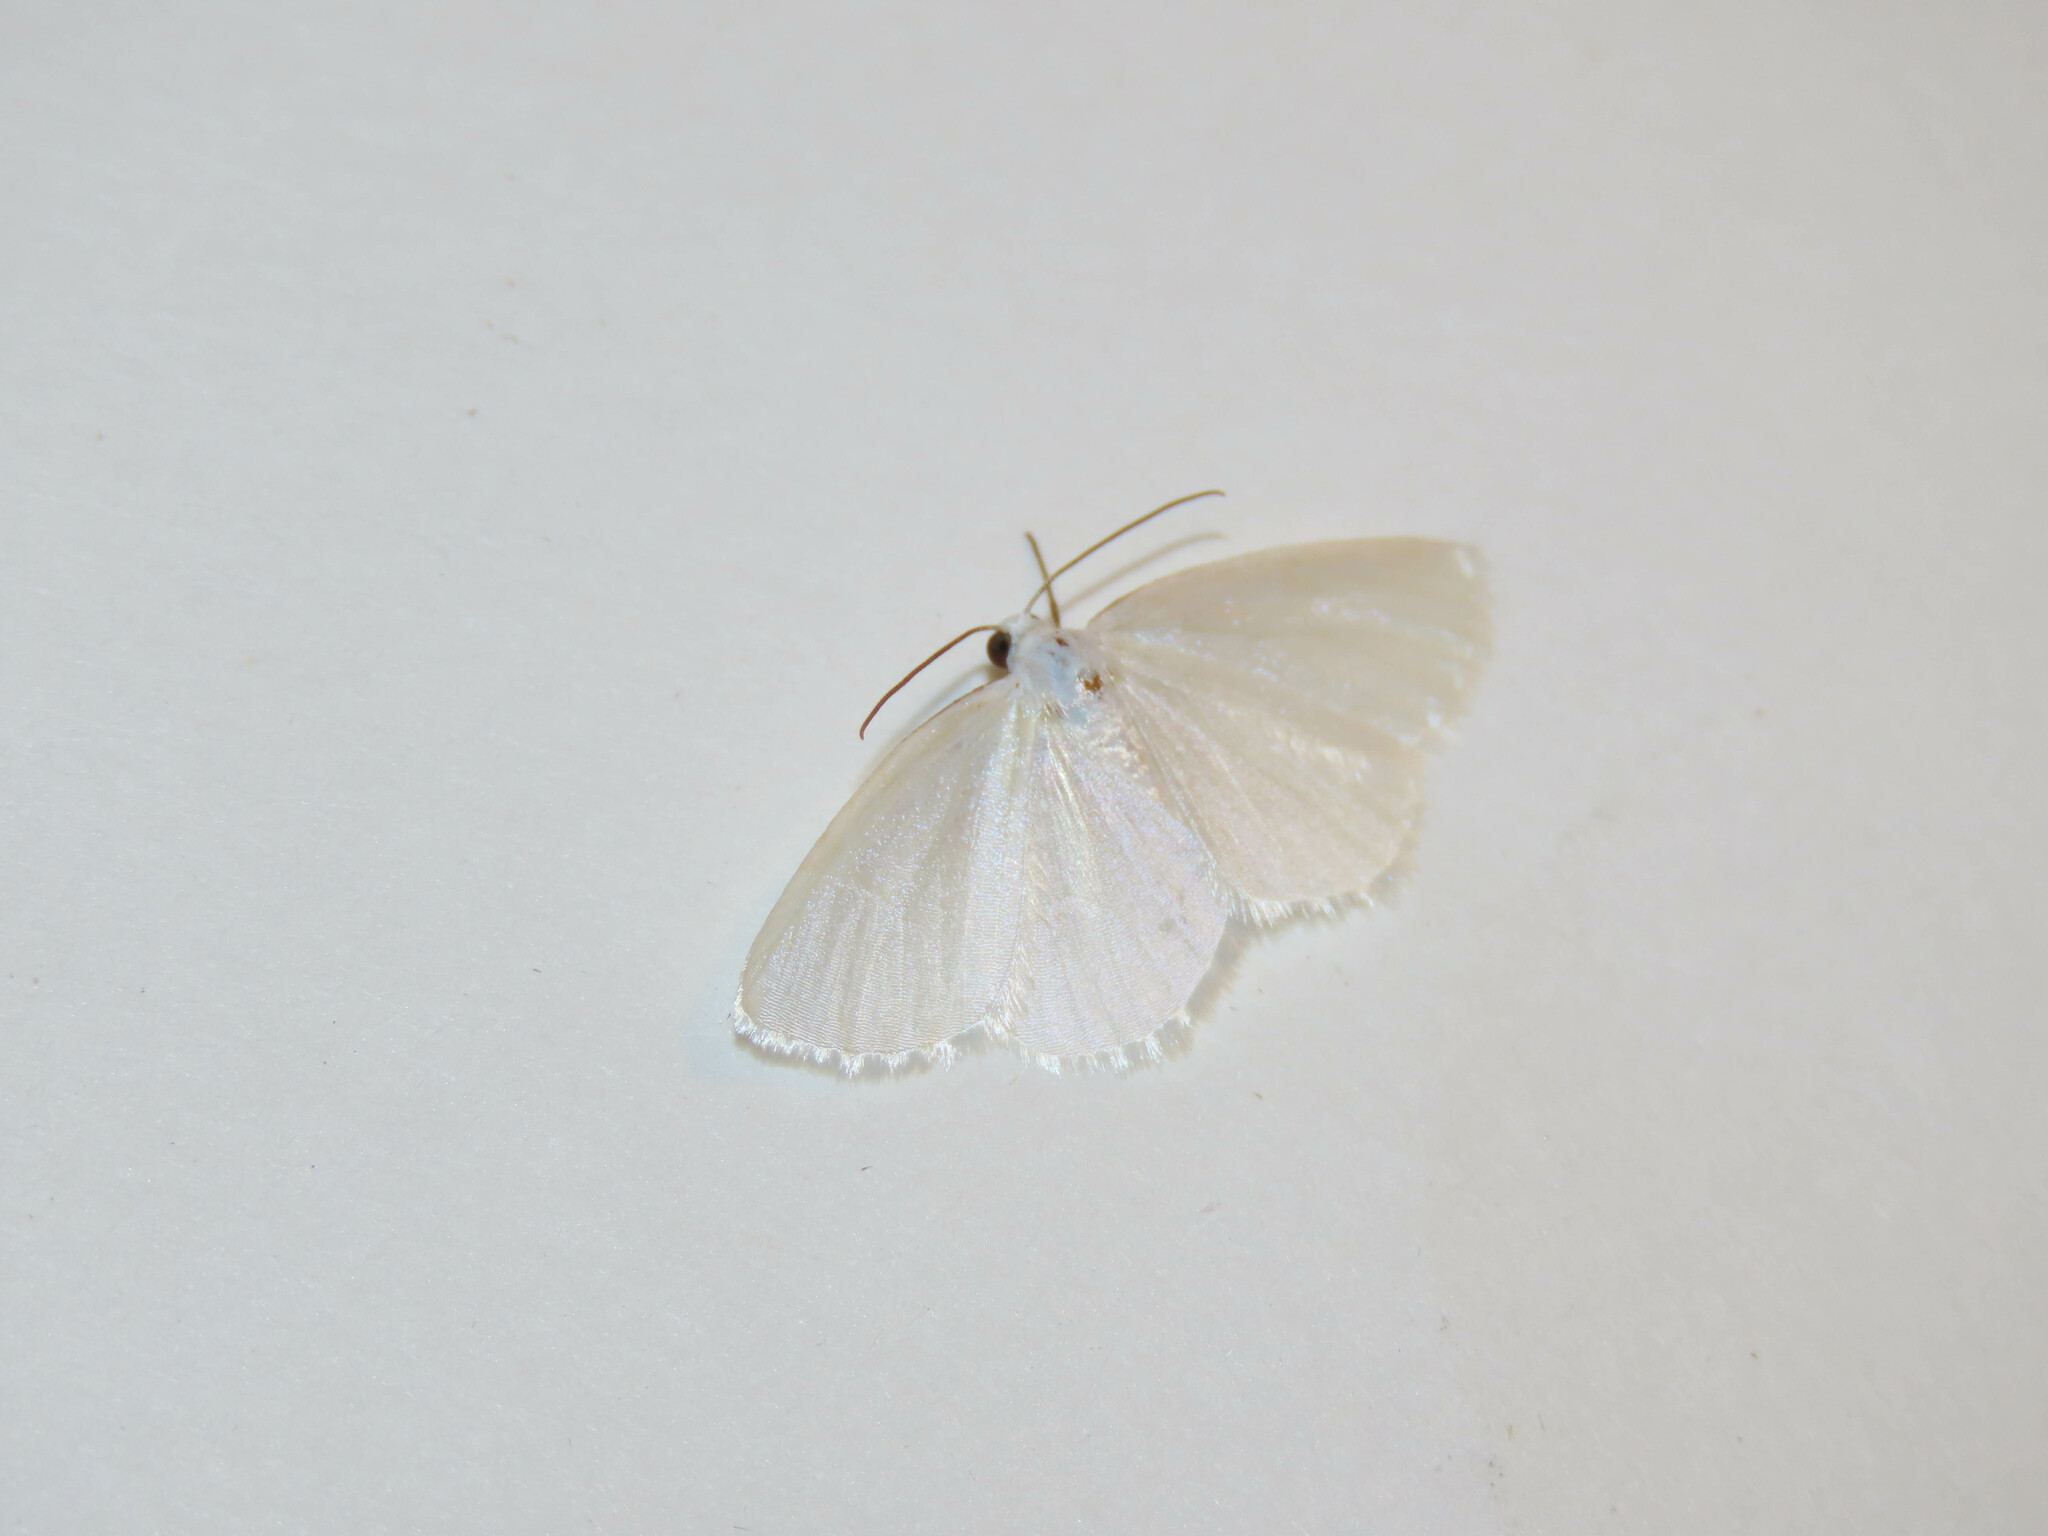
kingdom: Animalia
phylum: Arthropoda
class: Insecta
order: Lepidoptera
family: Geometridae
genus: Lomographa
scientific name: Lomographa vestaliata
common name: White spring moth
